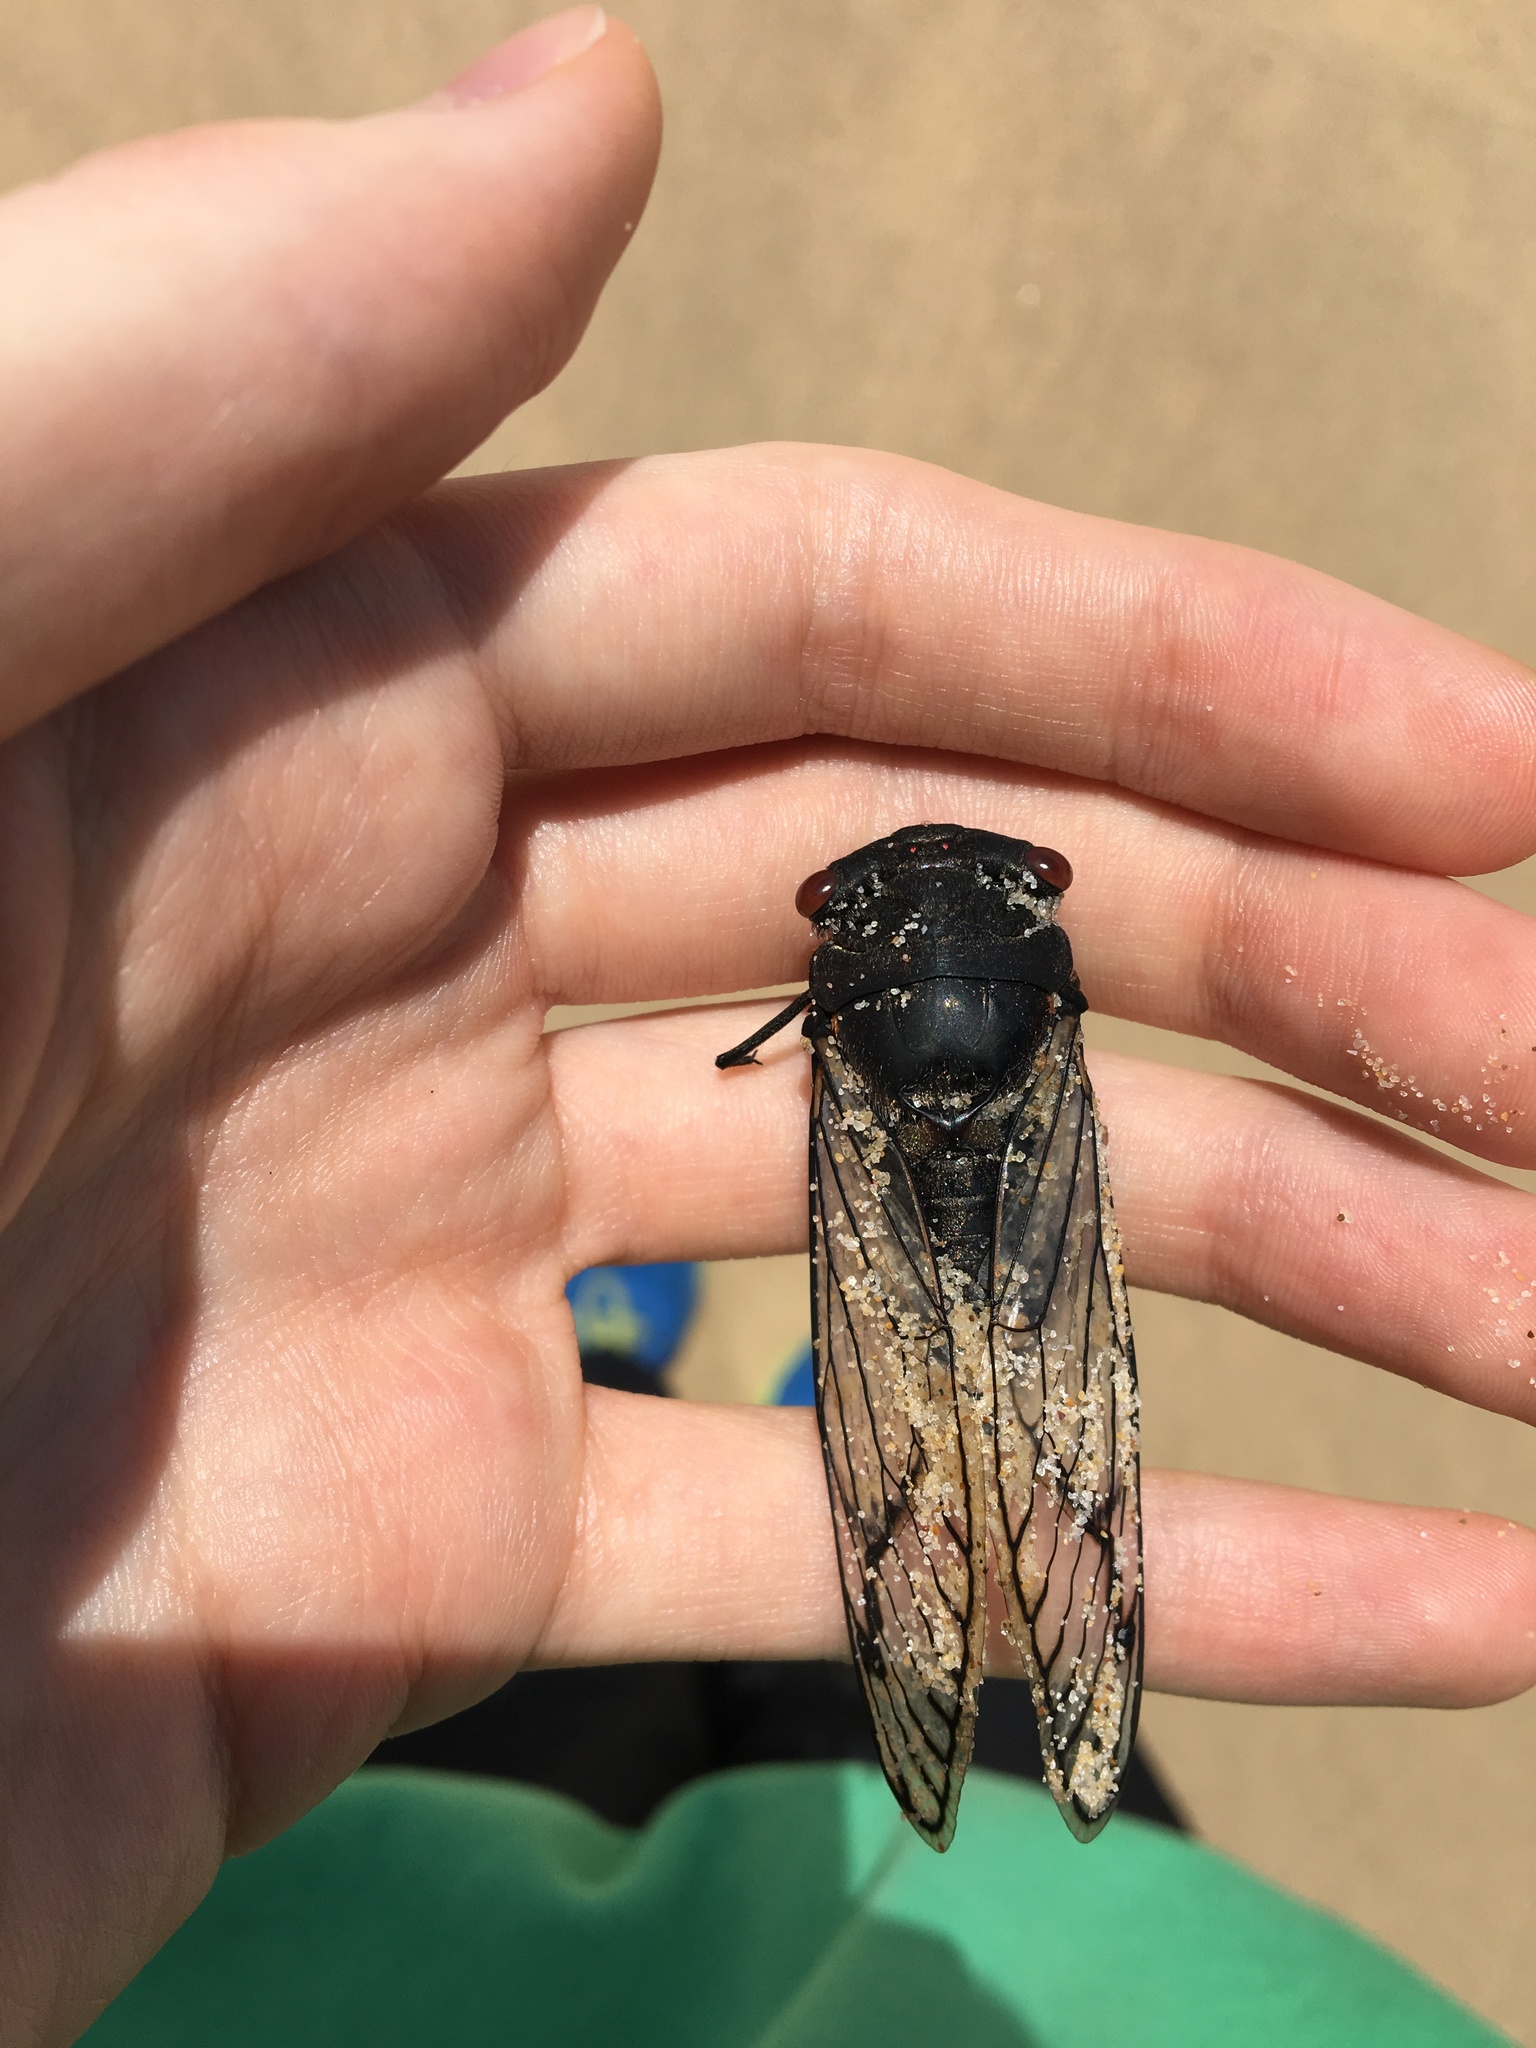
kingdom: Animalia
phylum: Arthropoda
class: Insecta
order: Hemiptera
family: Cicadidae
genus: Psaltoda
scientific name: Psaltoda moerens
